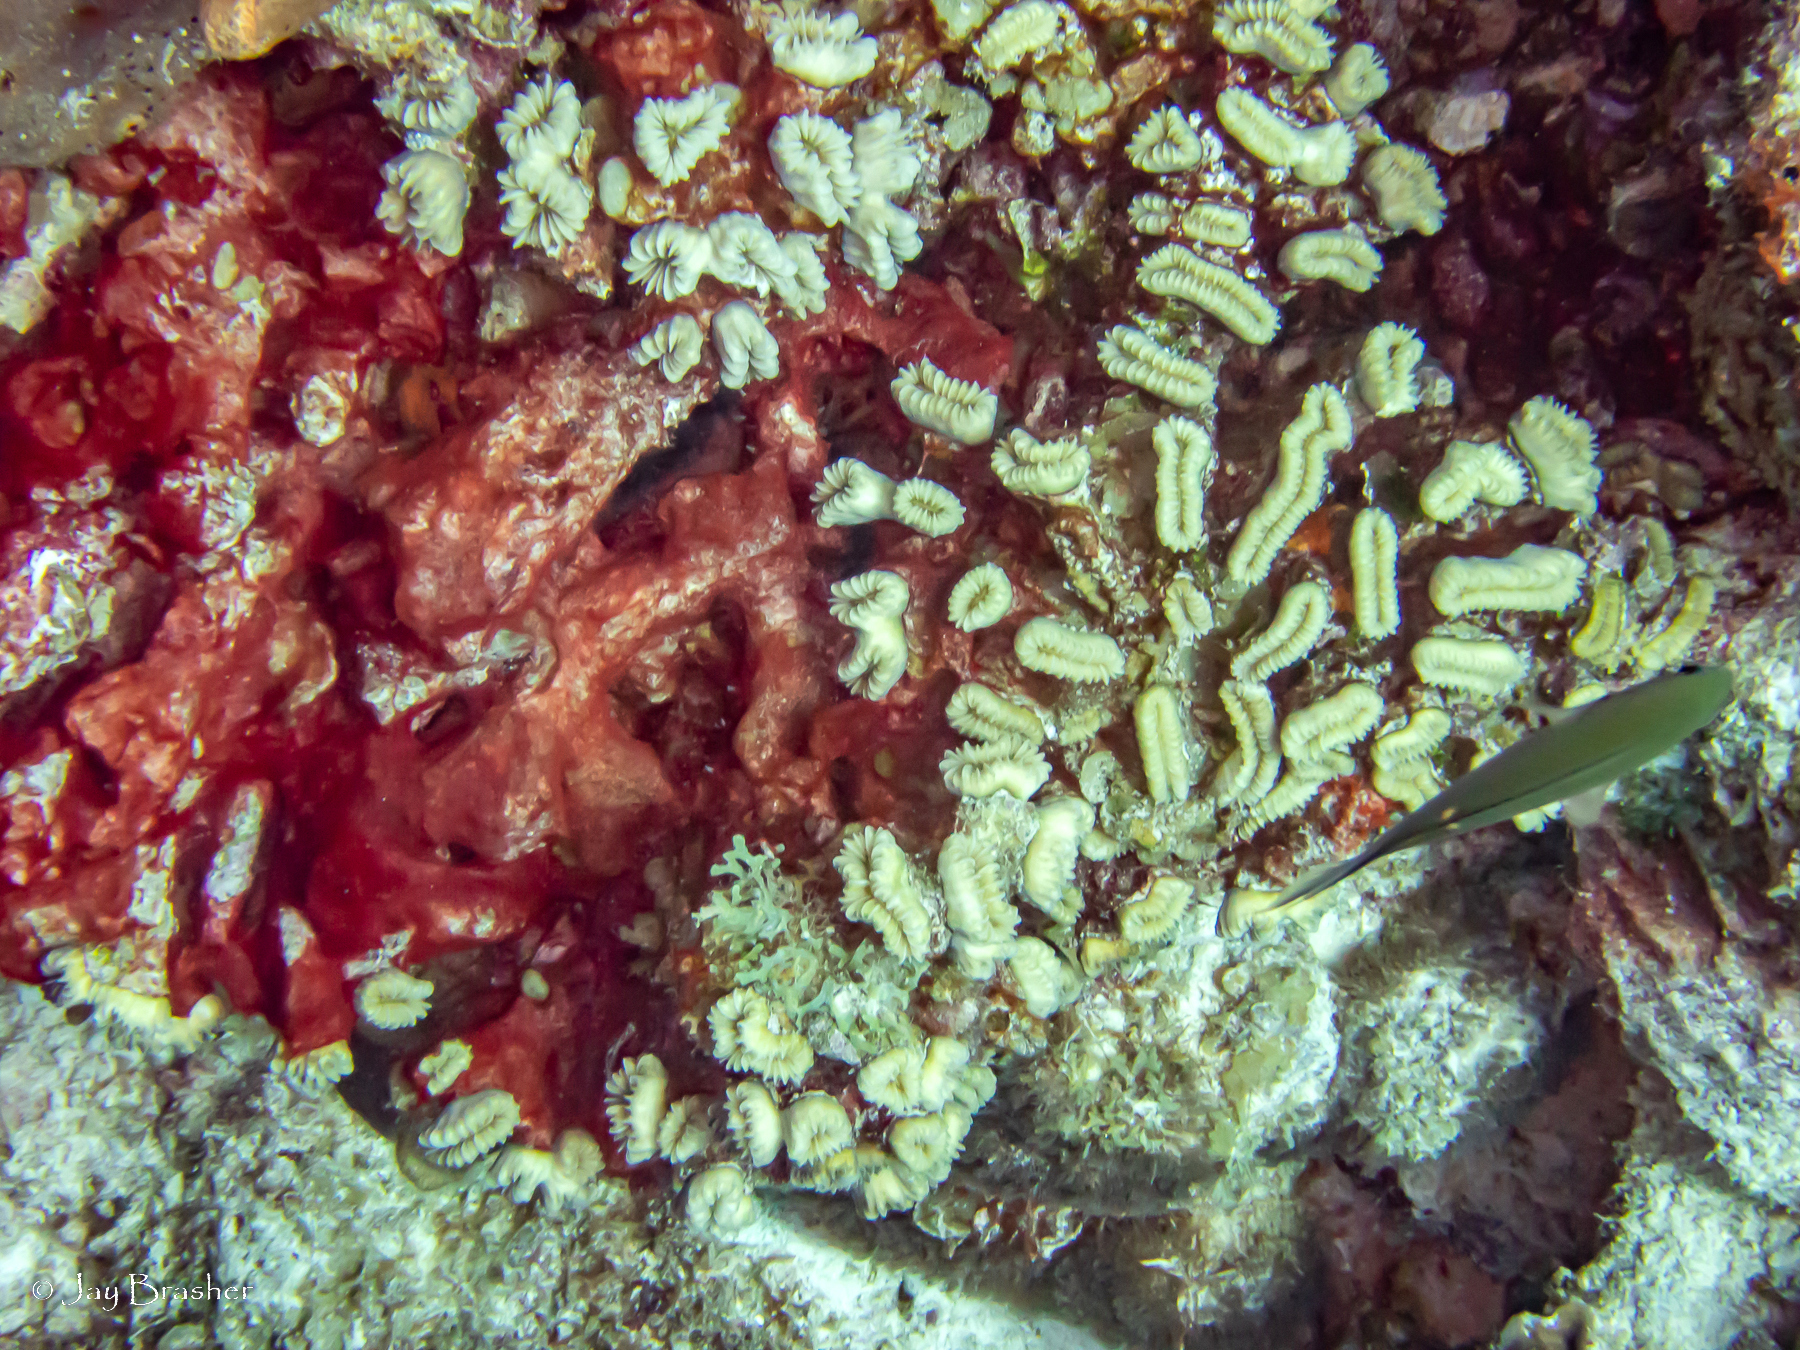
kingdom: Animalia
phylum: Chordata
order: Perciformes
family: Pomacentridae
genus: Chromis
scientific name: Chromis multilineata
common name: Brown chromis
